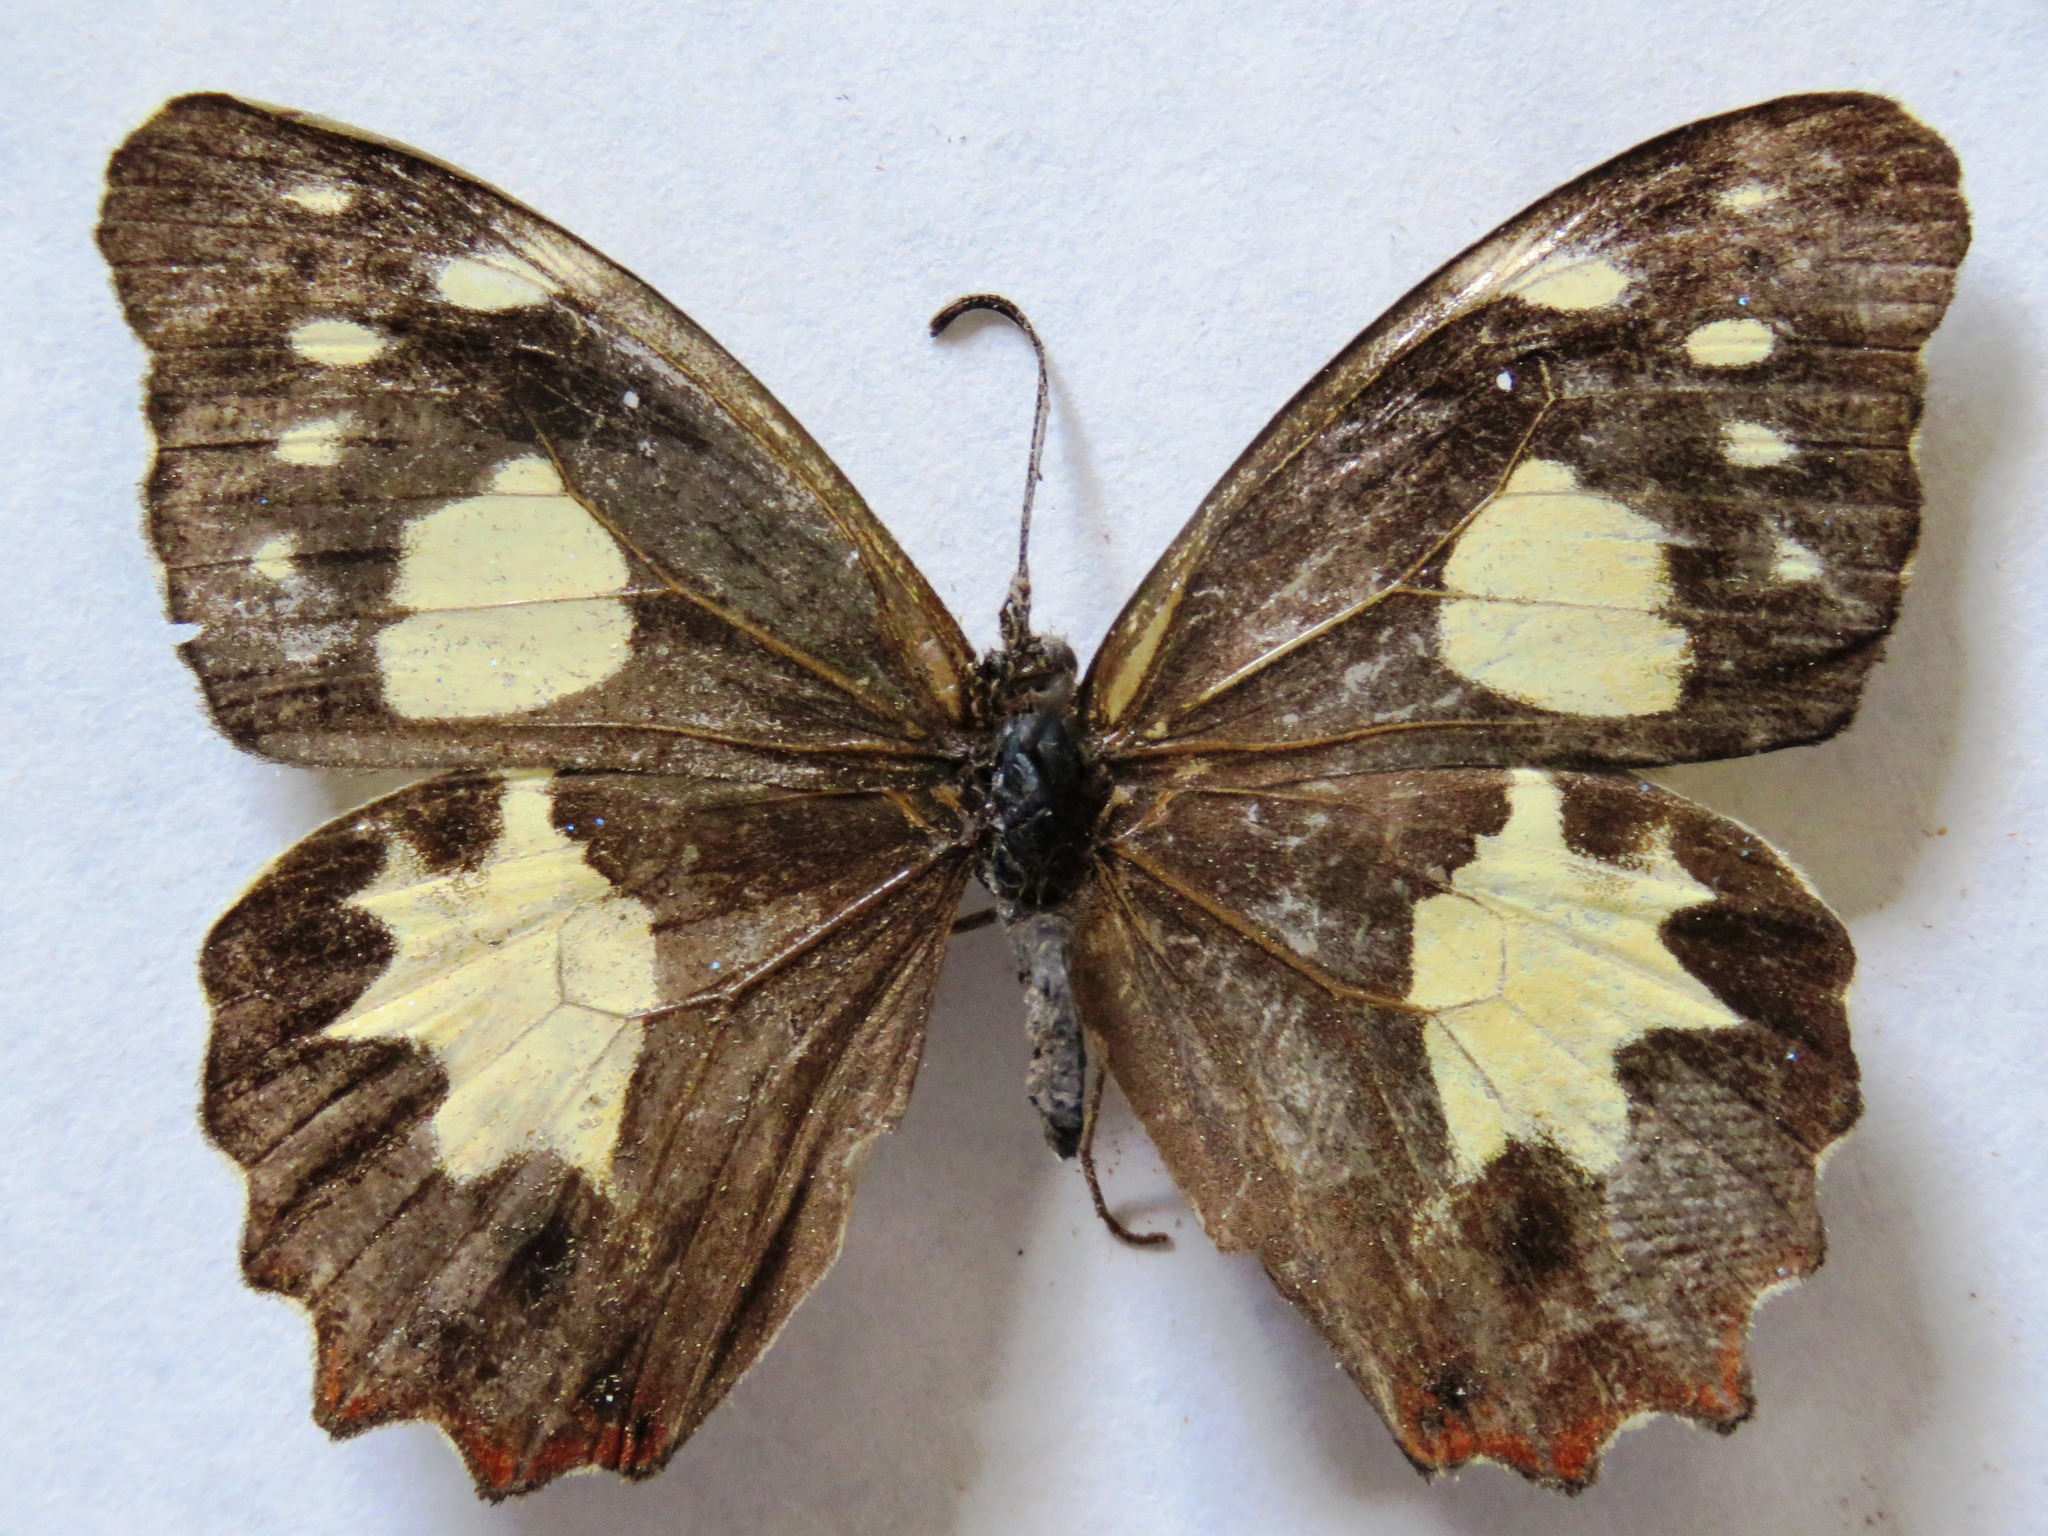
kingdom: Animalia
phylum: Arthropoda
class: Insecta
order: Lepidoptera
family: Nymphalidae
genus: Oxeoschistus
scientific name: Oxeoschistus tauropolis
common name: Starred oxeo
